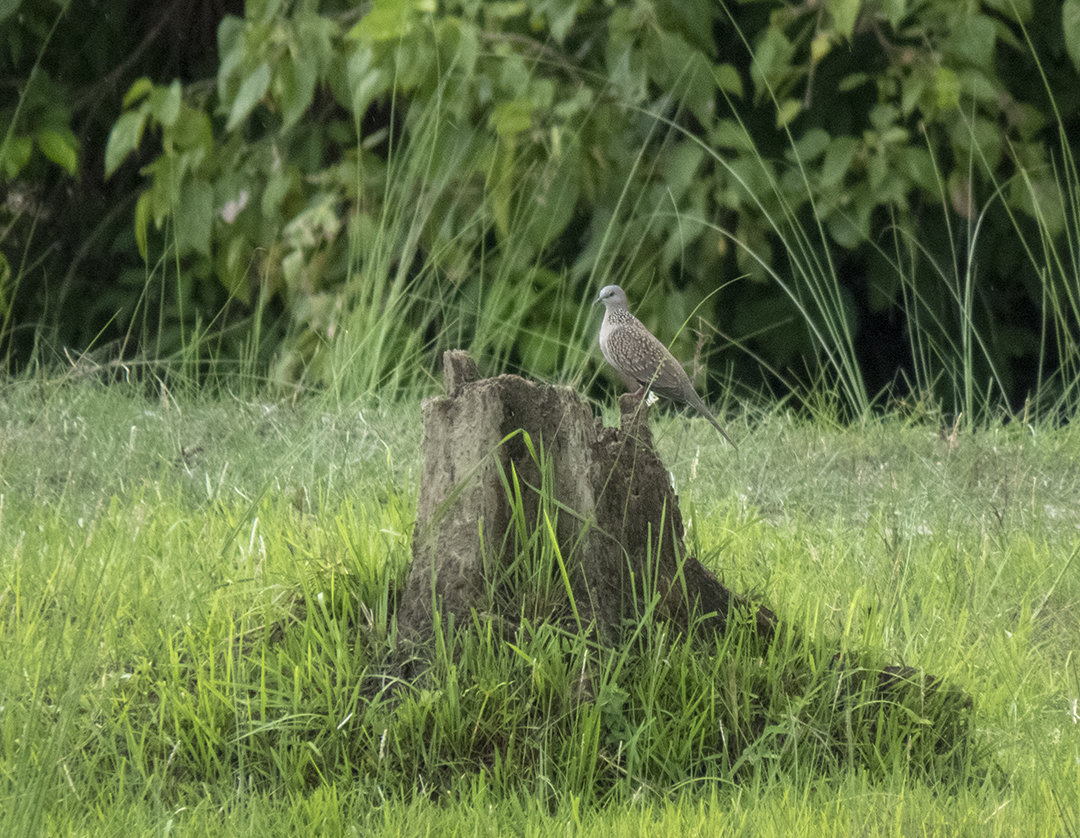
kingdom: Animalia
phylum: Chordata
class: Aves
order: Columbiformes
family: Columbidae
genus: Spilopelia
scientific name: Spilopelia chinensis
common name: Spotted dove
